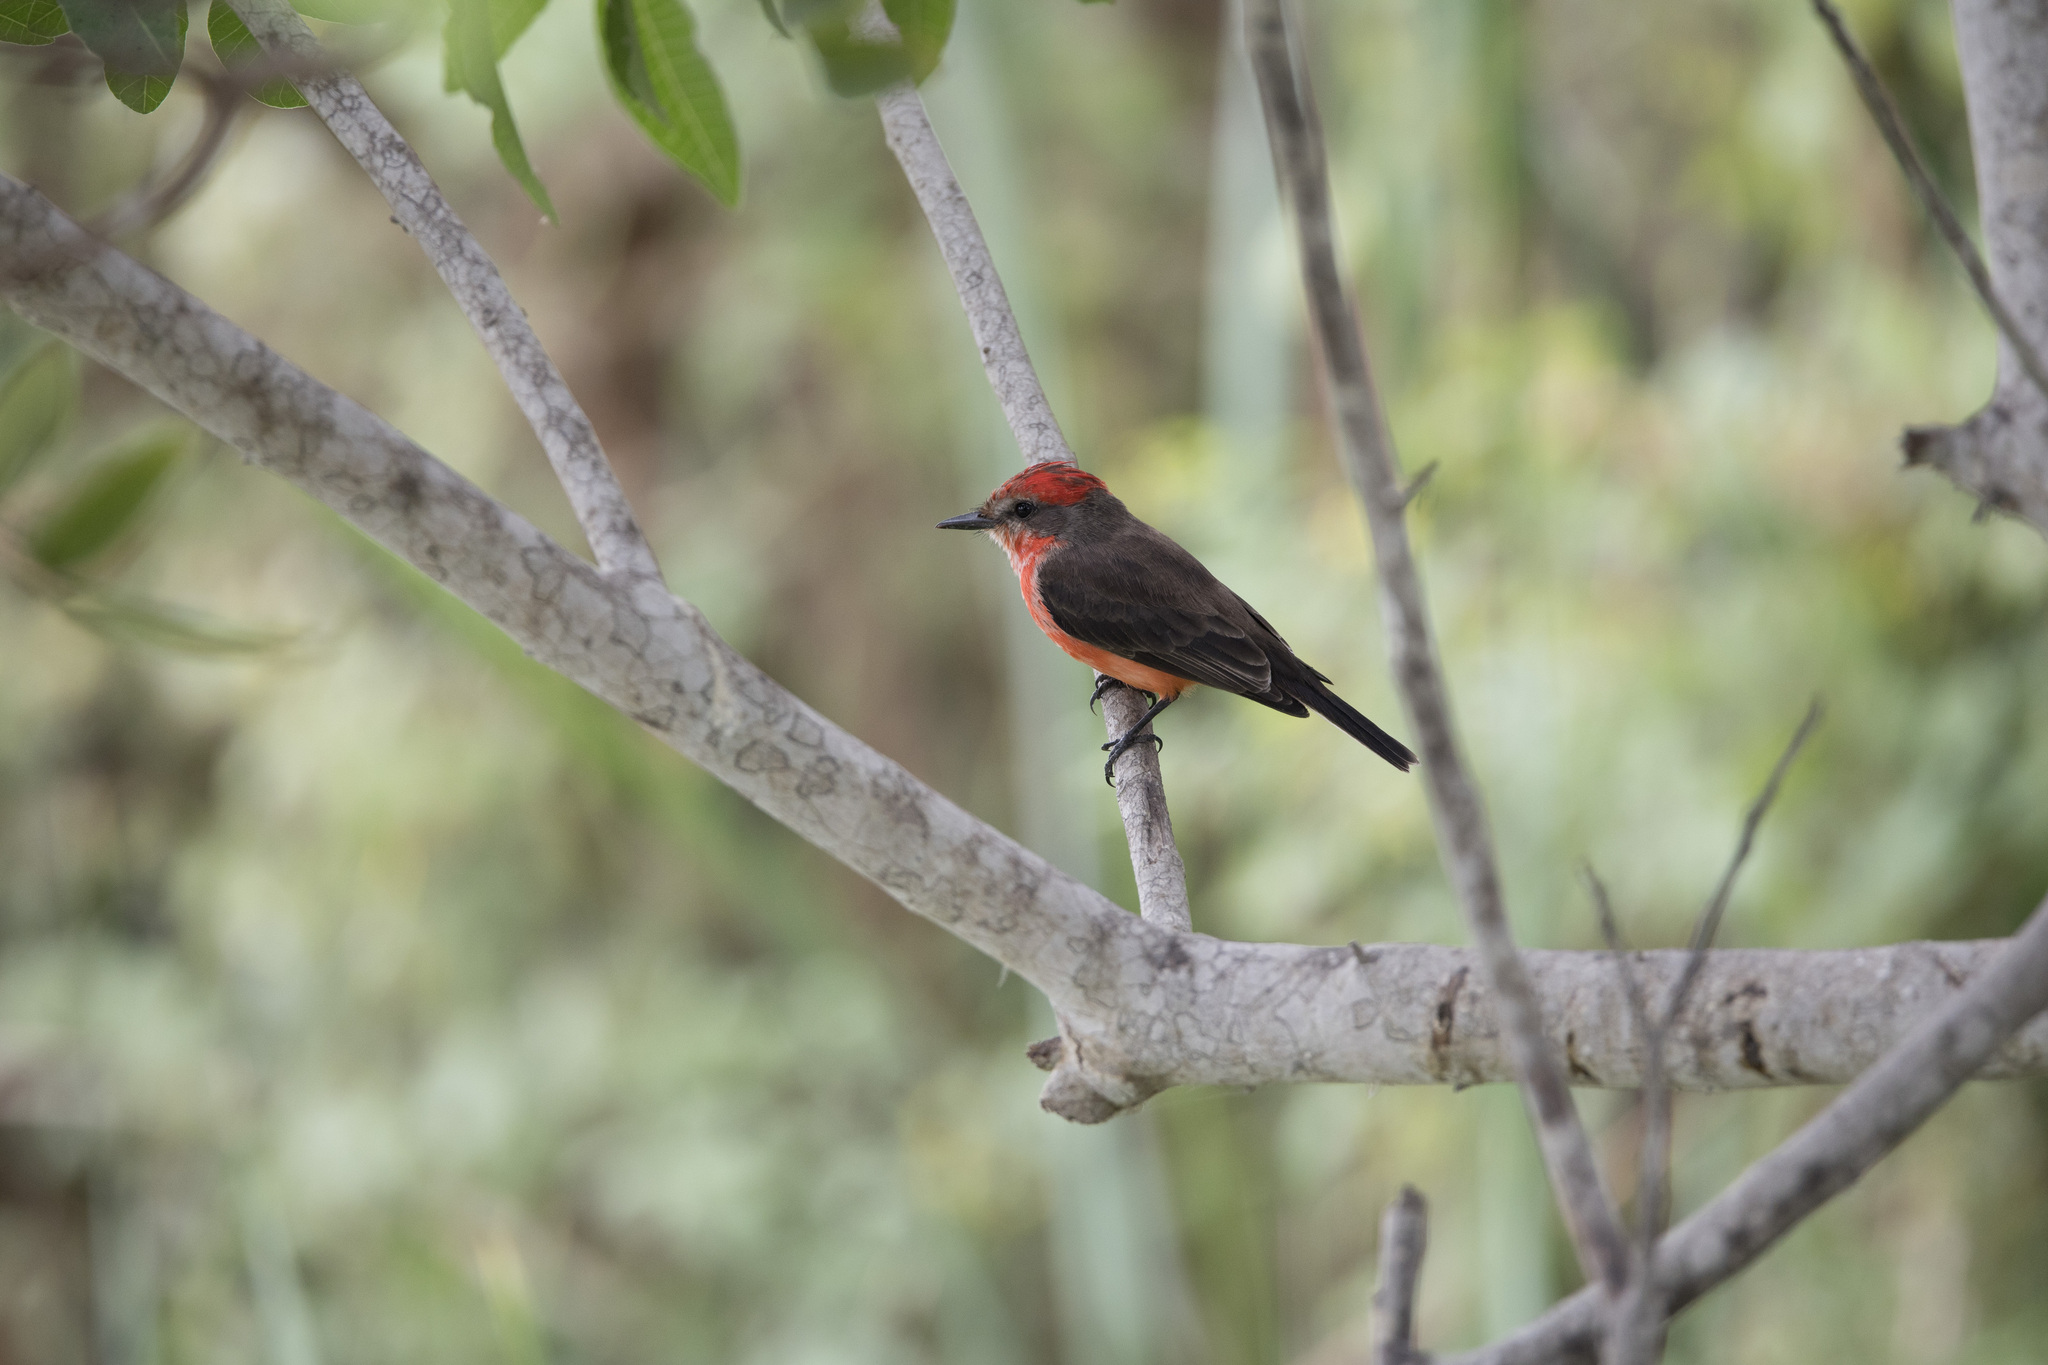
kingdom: Animalia
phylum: Chordata
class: Aves
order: Passeriformes
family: Tyrannidae
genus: Pyrocephalus
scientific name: Pyrocephalus rubinus
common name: Vermilion flycatcher
